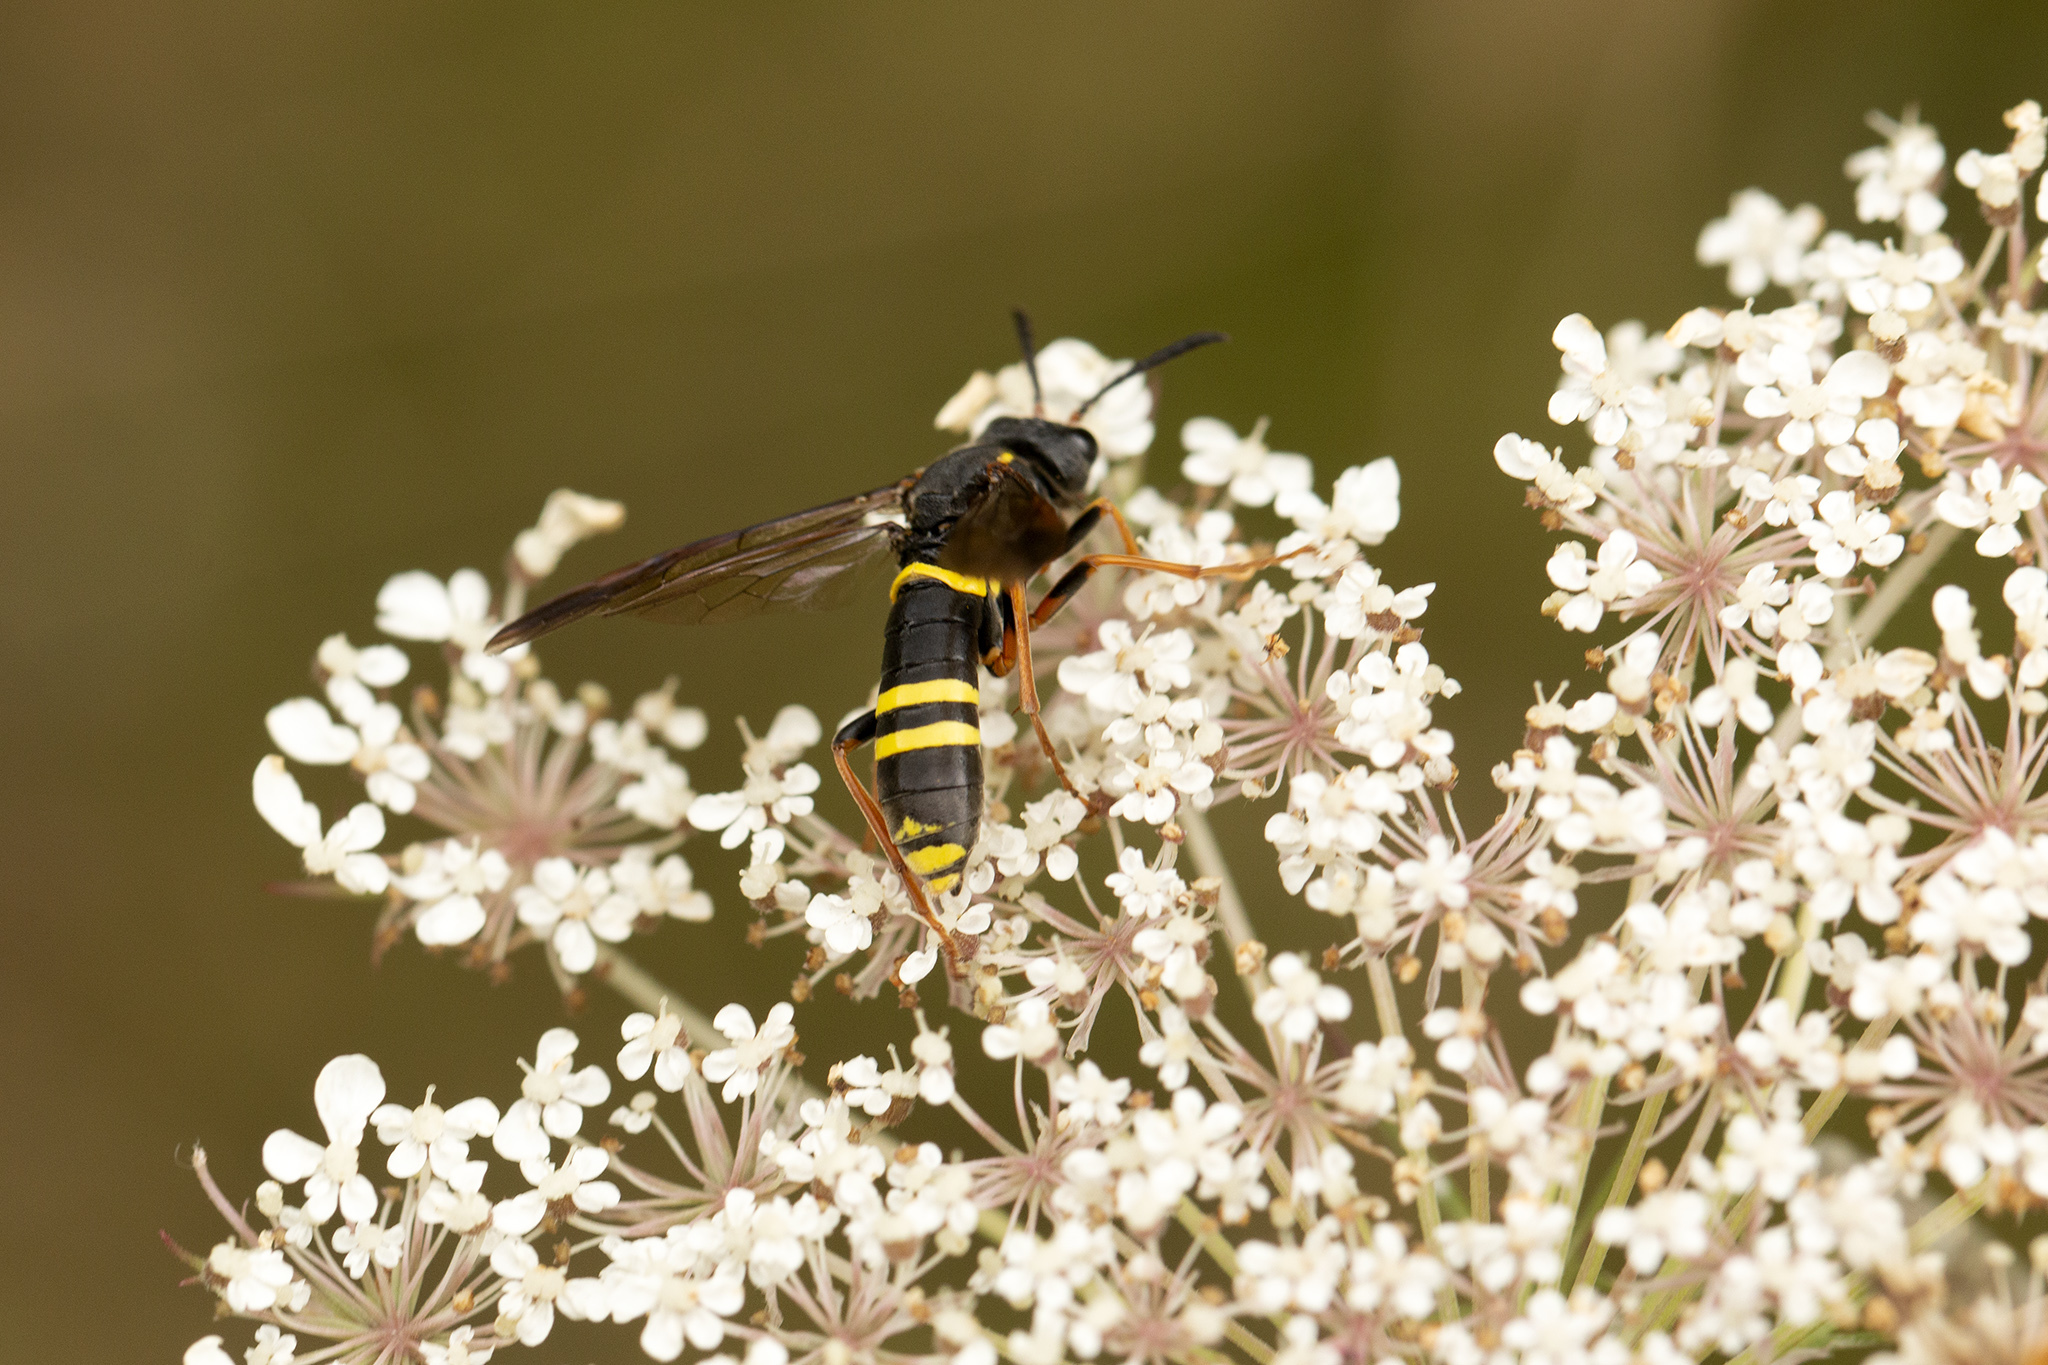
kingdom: Animalia
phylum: Arthropoda
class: Insecta
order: Hymenoptera
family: Tenthredinidae
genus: Tenthredo
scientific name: Tenthredo vespa
